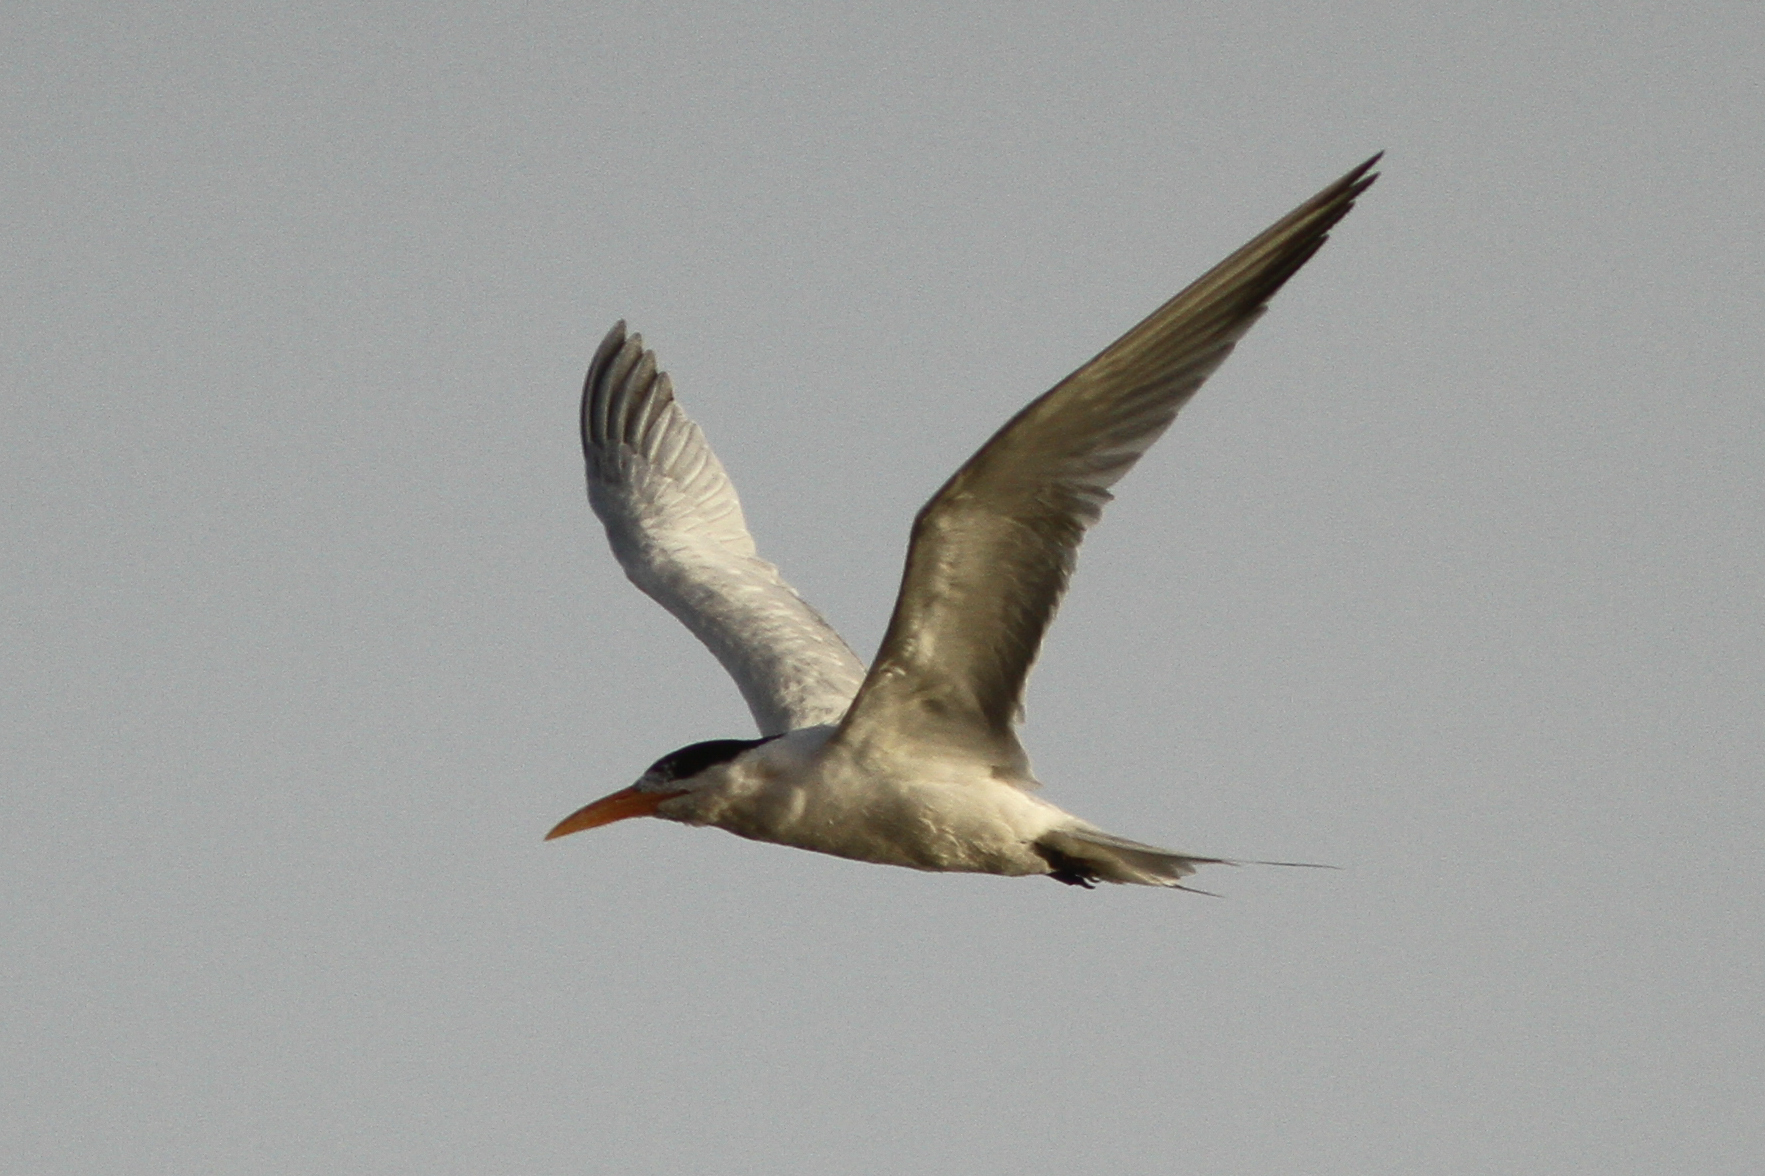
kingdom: Animalia
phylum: Chordata
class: Aves
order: Charadriiformes
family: Laridae
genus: Thalasseus
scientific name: Thalasseus albididorsalis
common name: West african crested tern
